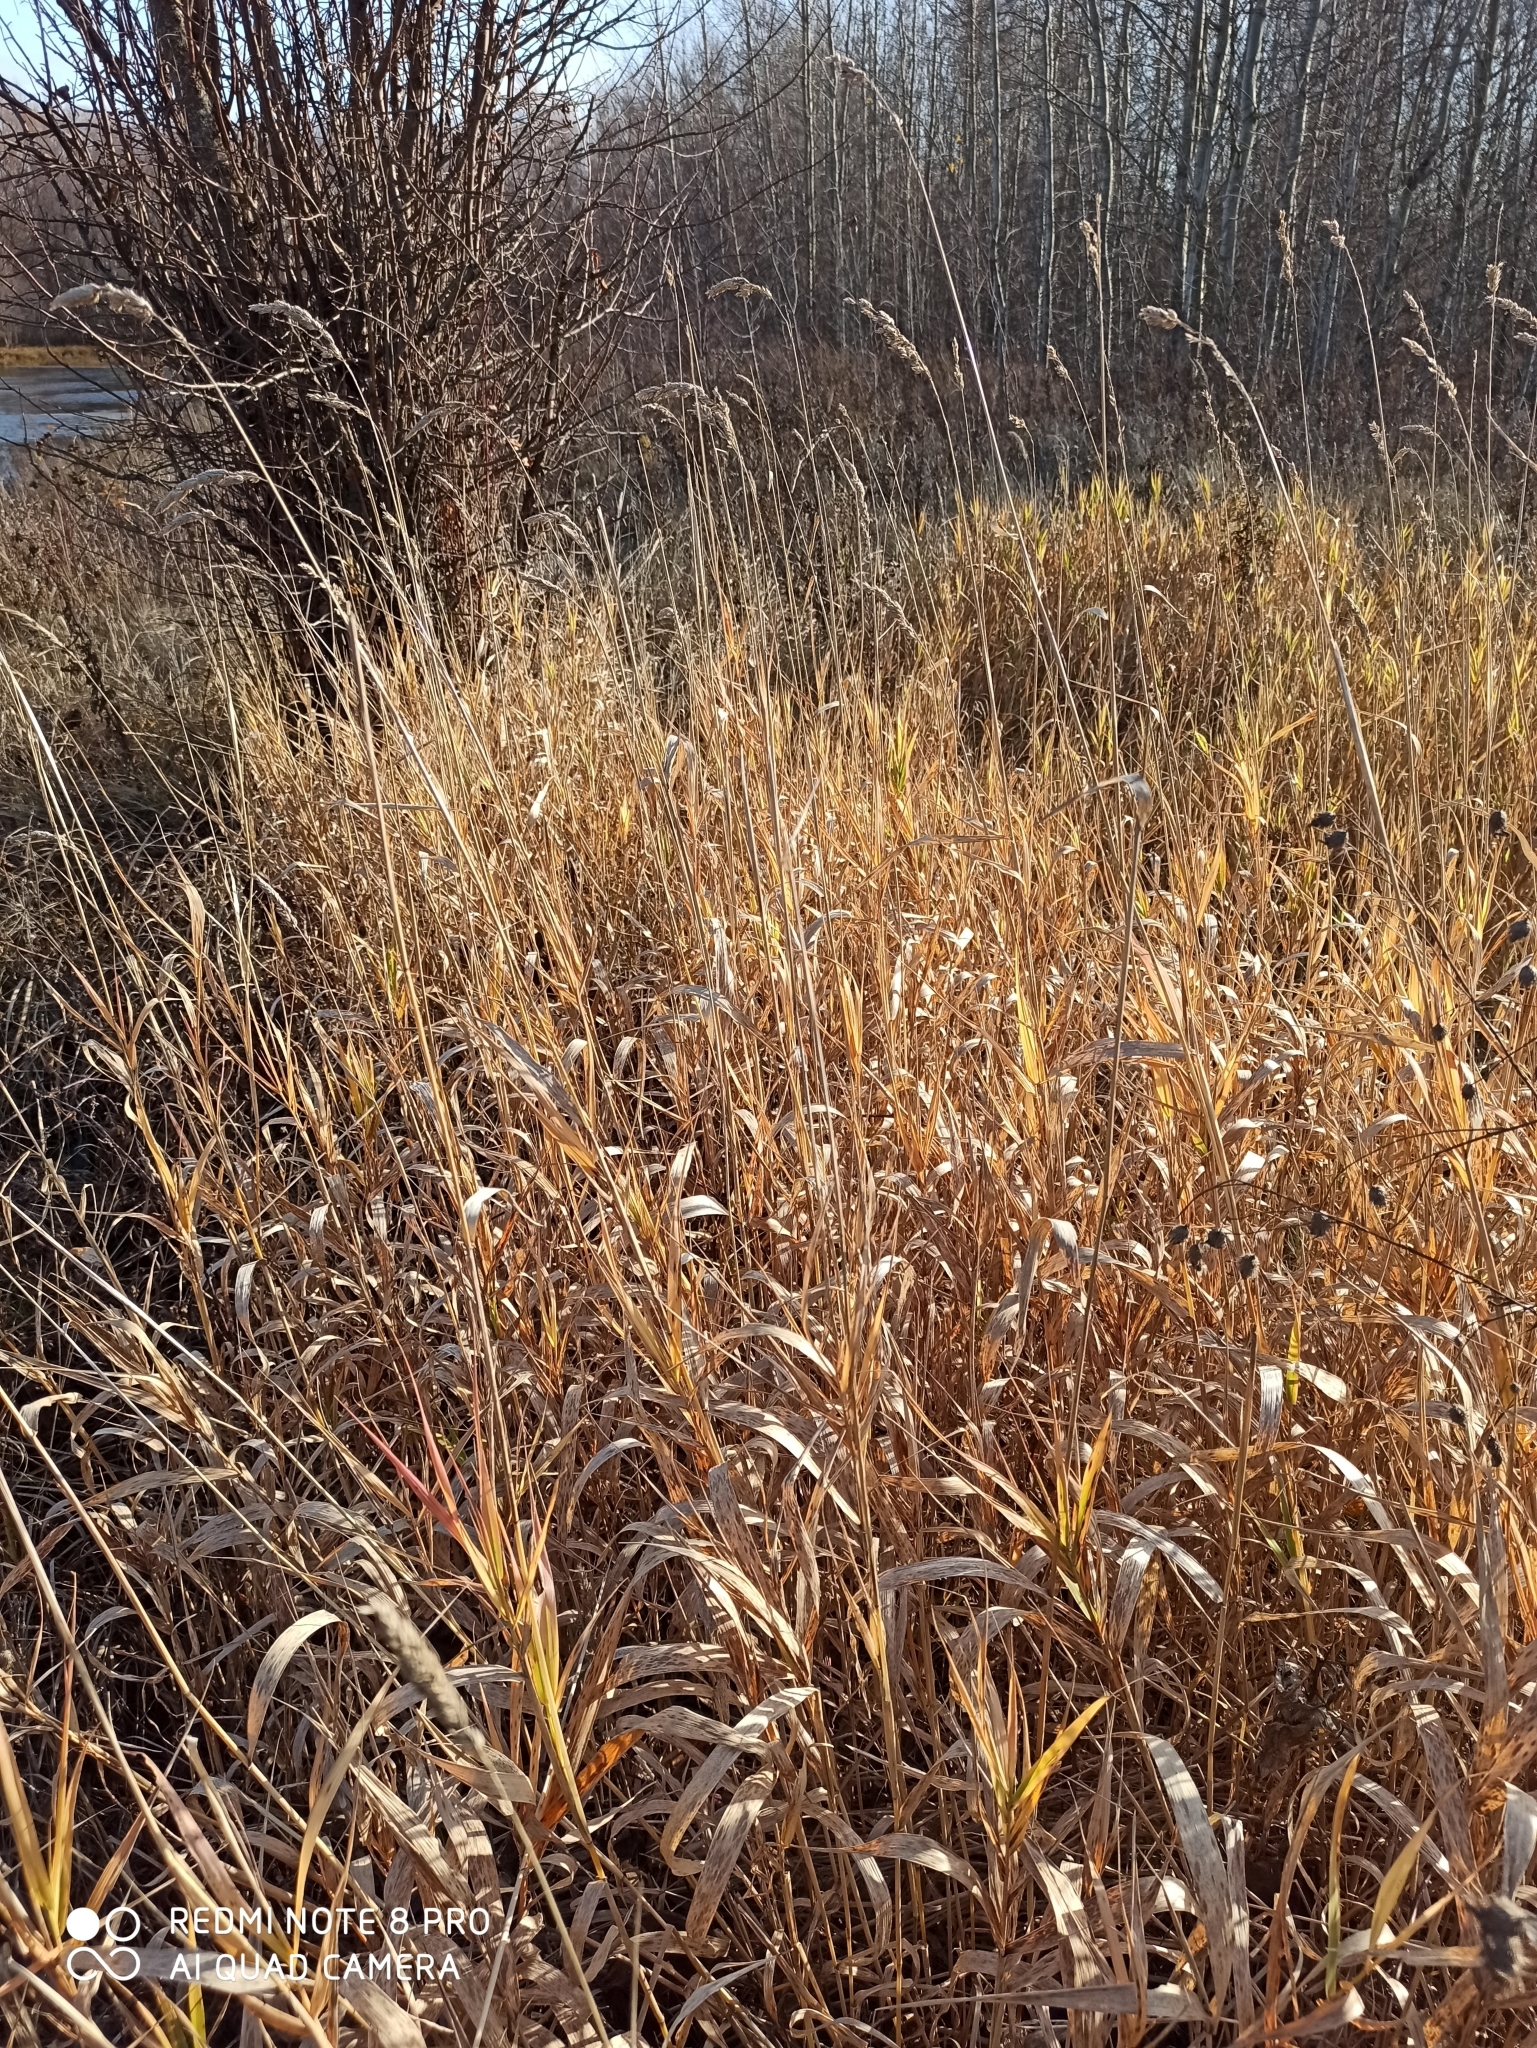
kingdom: Plantae
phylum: Tracheophyta
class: Liliopsida
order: Poales
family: Poaceae
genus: Phalaris
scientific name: Phalaris arundinacea
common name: Reed canary-grass
